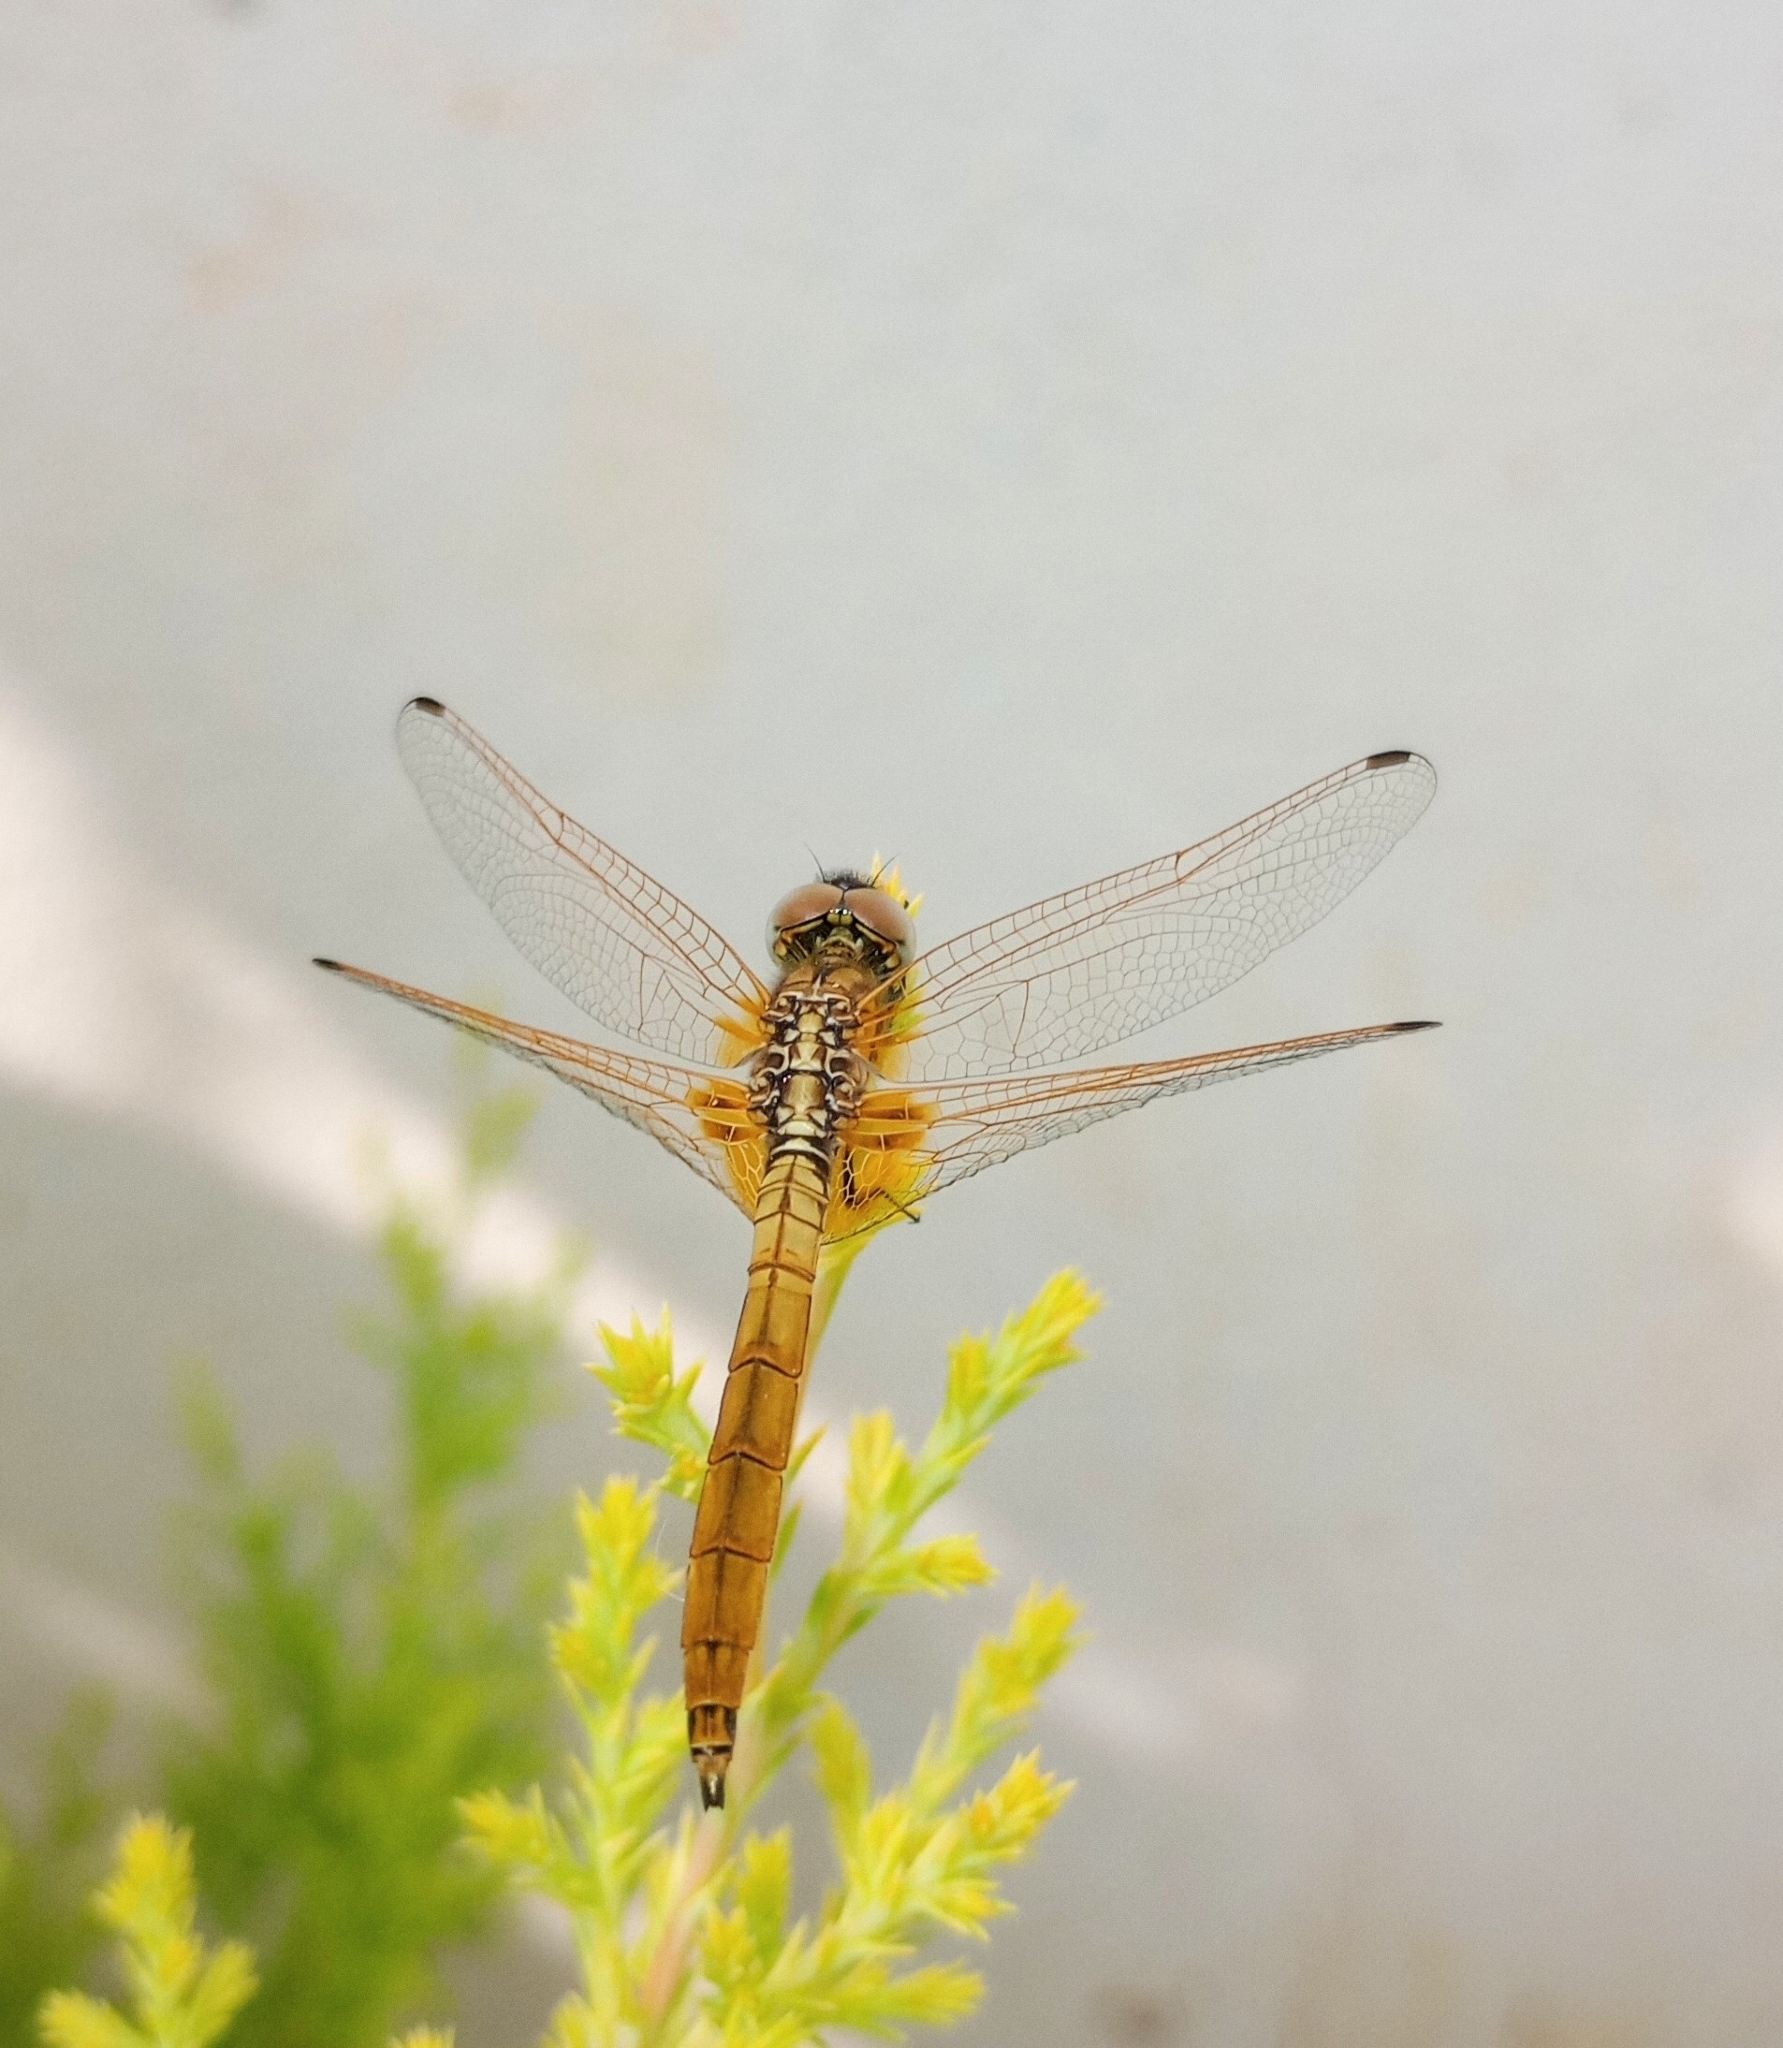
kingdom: Animalia
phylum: Arthropoda
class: Insecta
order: Odonata
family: Libellulidae
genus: Trithemis
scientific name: Trithemis aurora
